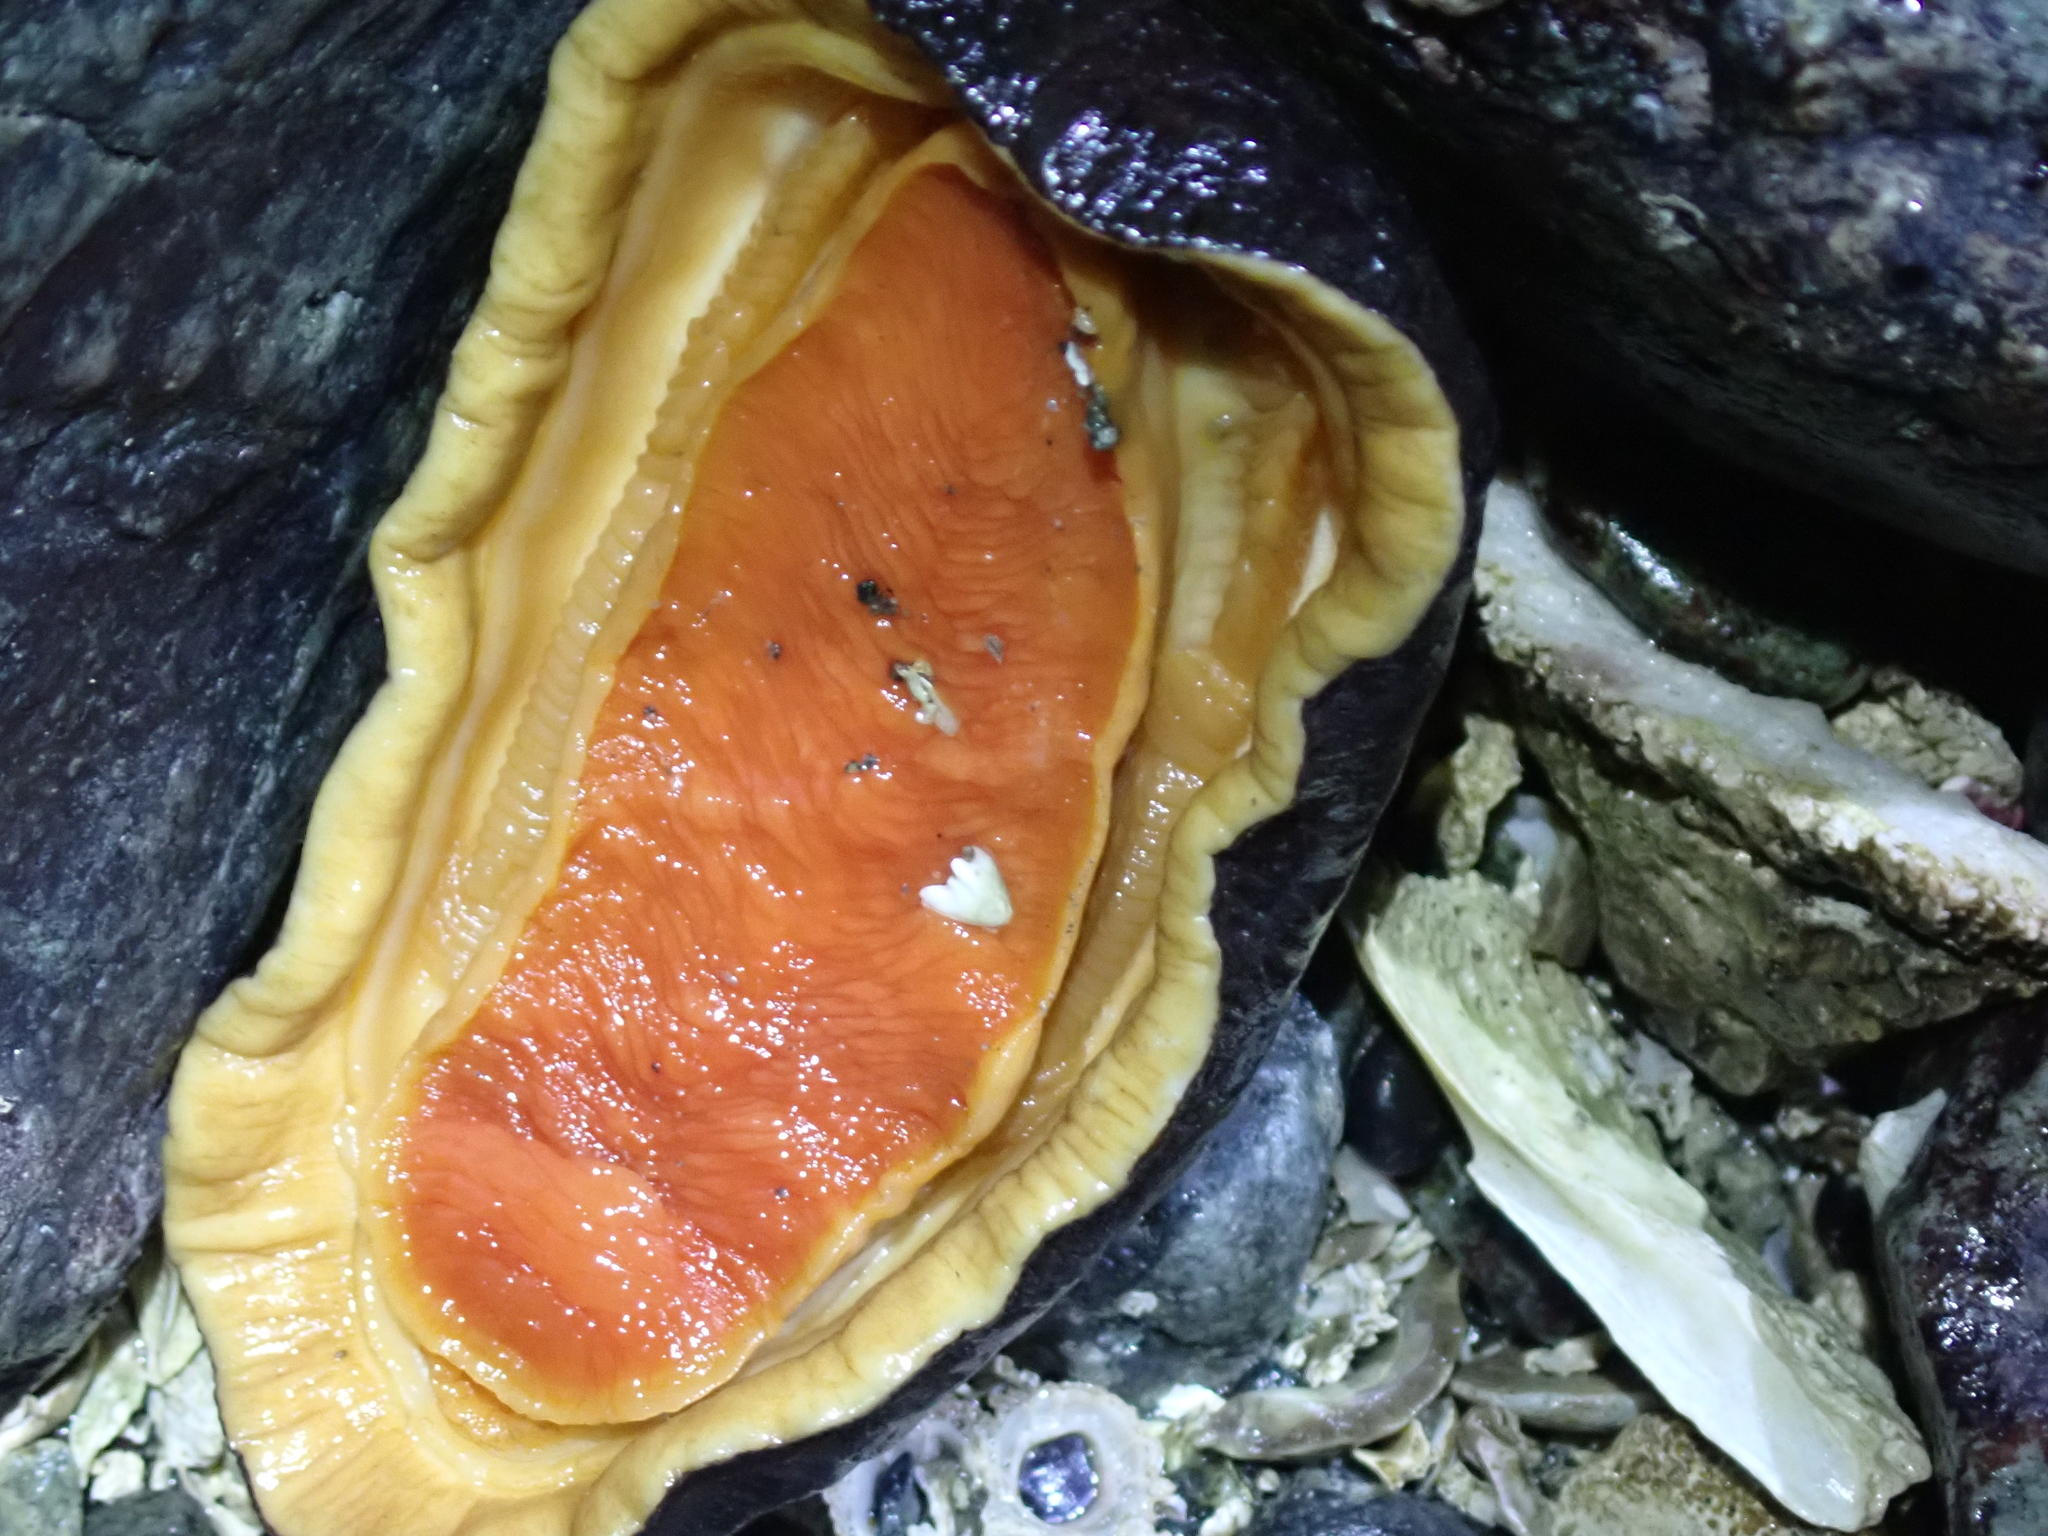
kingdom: Animalia
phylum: Mollusca
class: Polyplacophora
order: Chitonida
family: Mopaliidae
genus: Katharina
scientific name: Katharina tunicata
